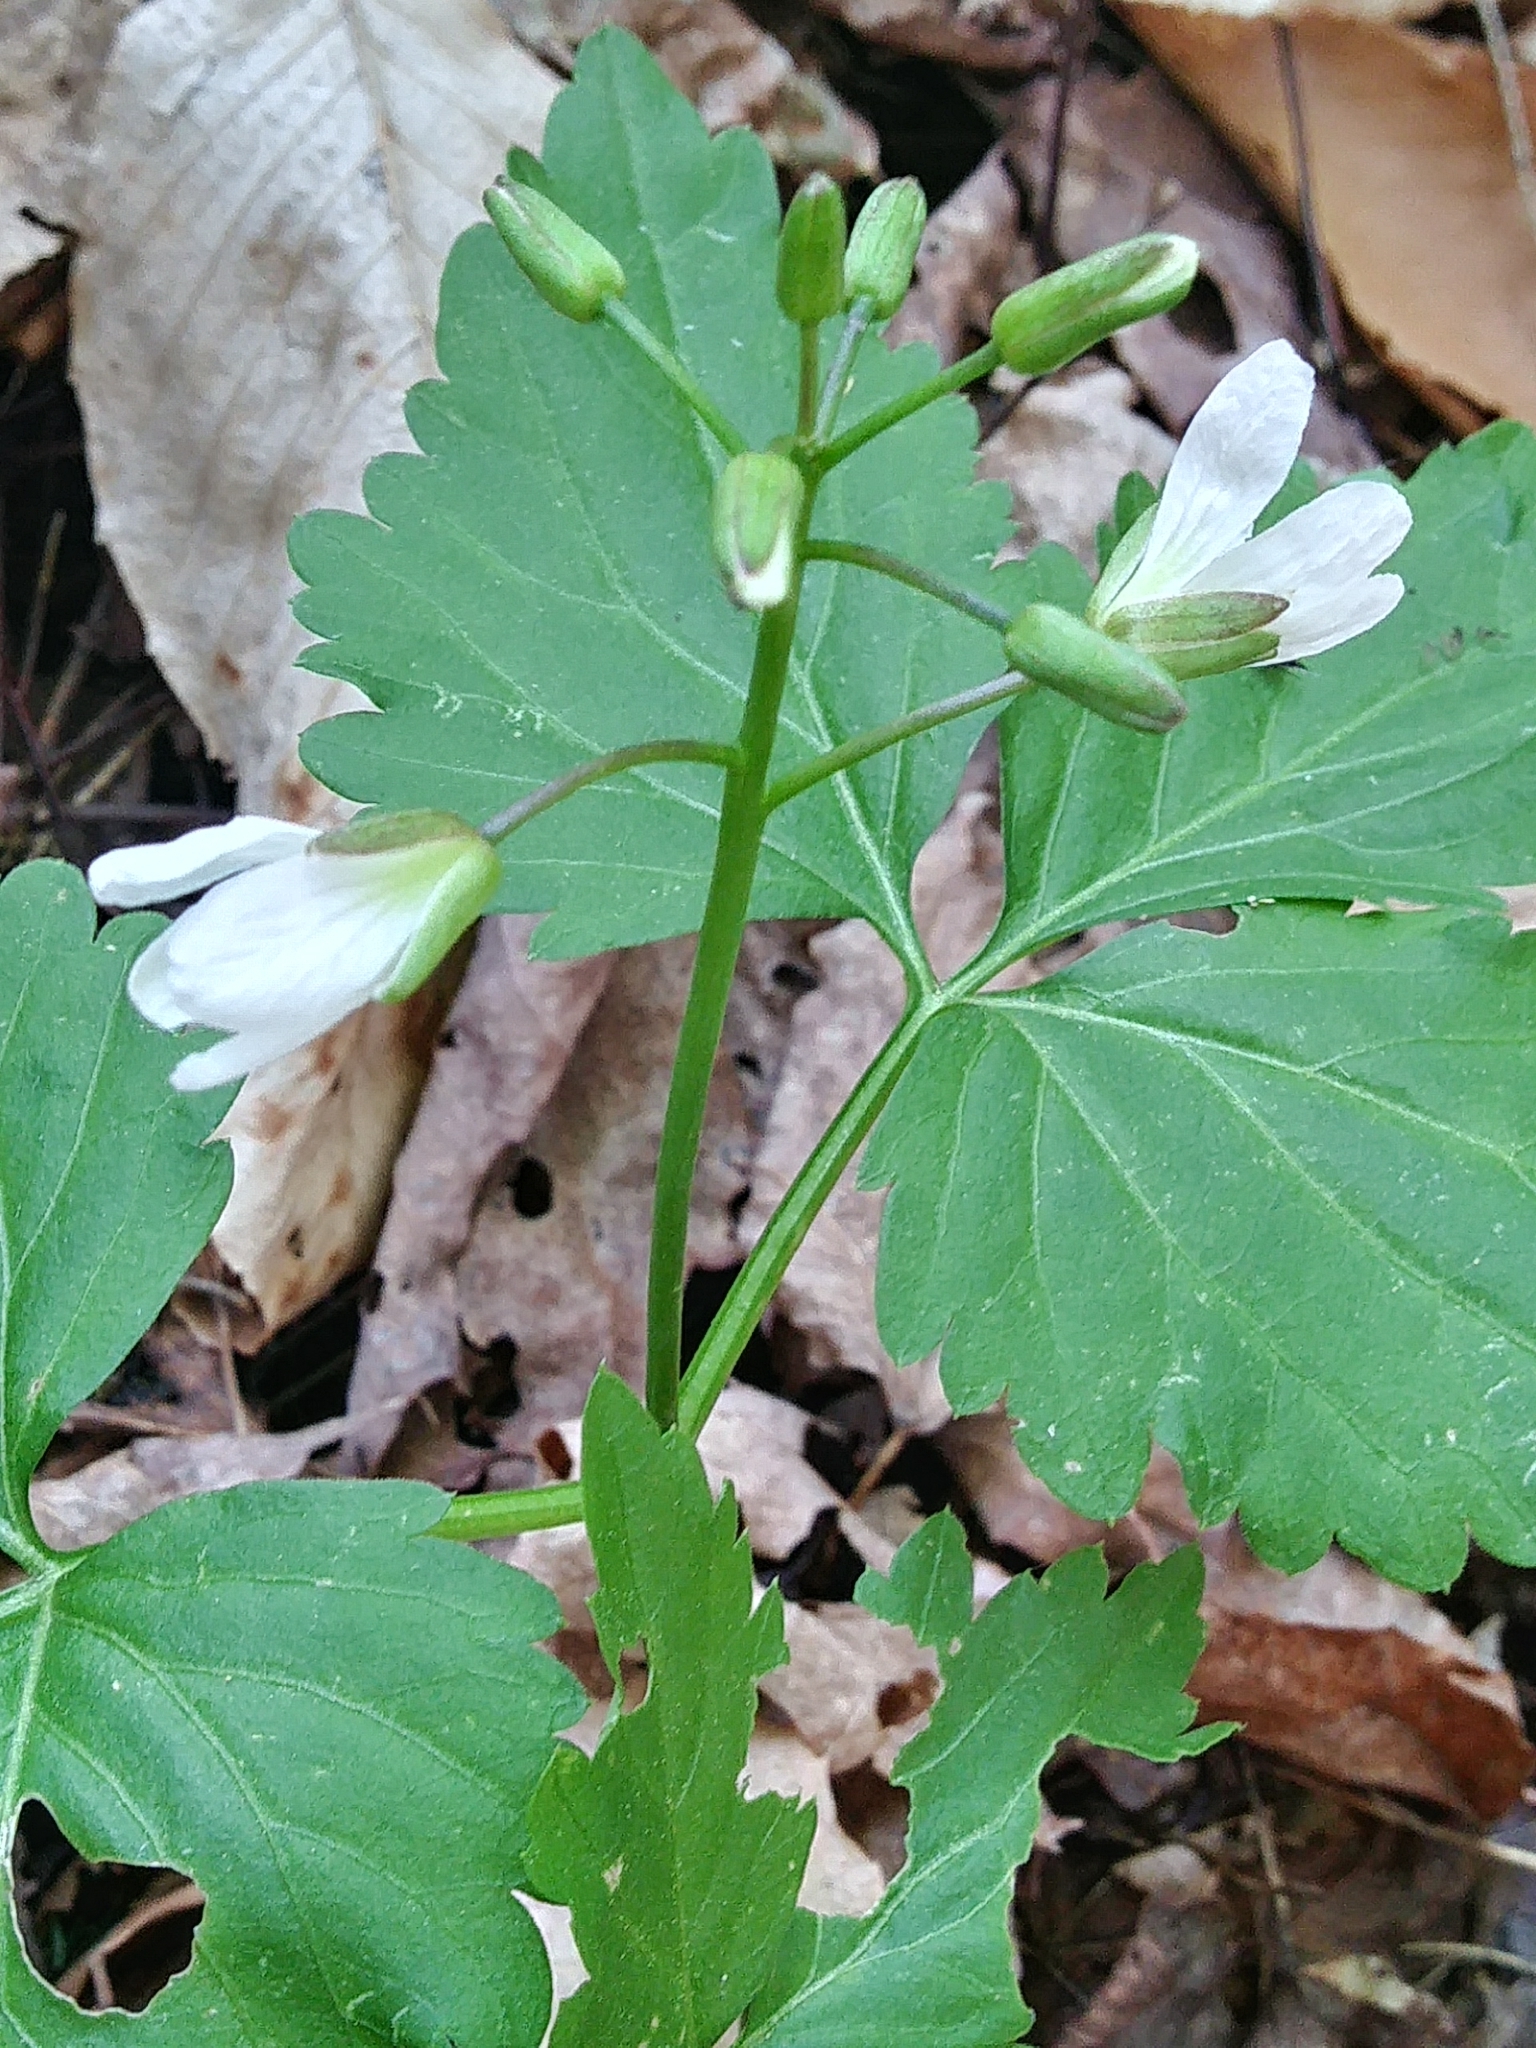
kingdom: Plantae
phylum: Tracheophyta
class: Magnoliopsida
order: Brassicales
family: Brassicaceae
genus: Cardamine
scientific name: Cardamine diphylla
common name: Broad-leaved toothwort
